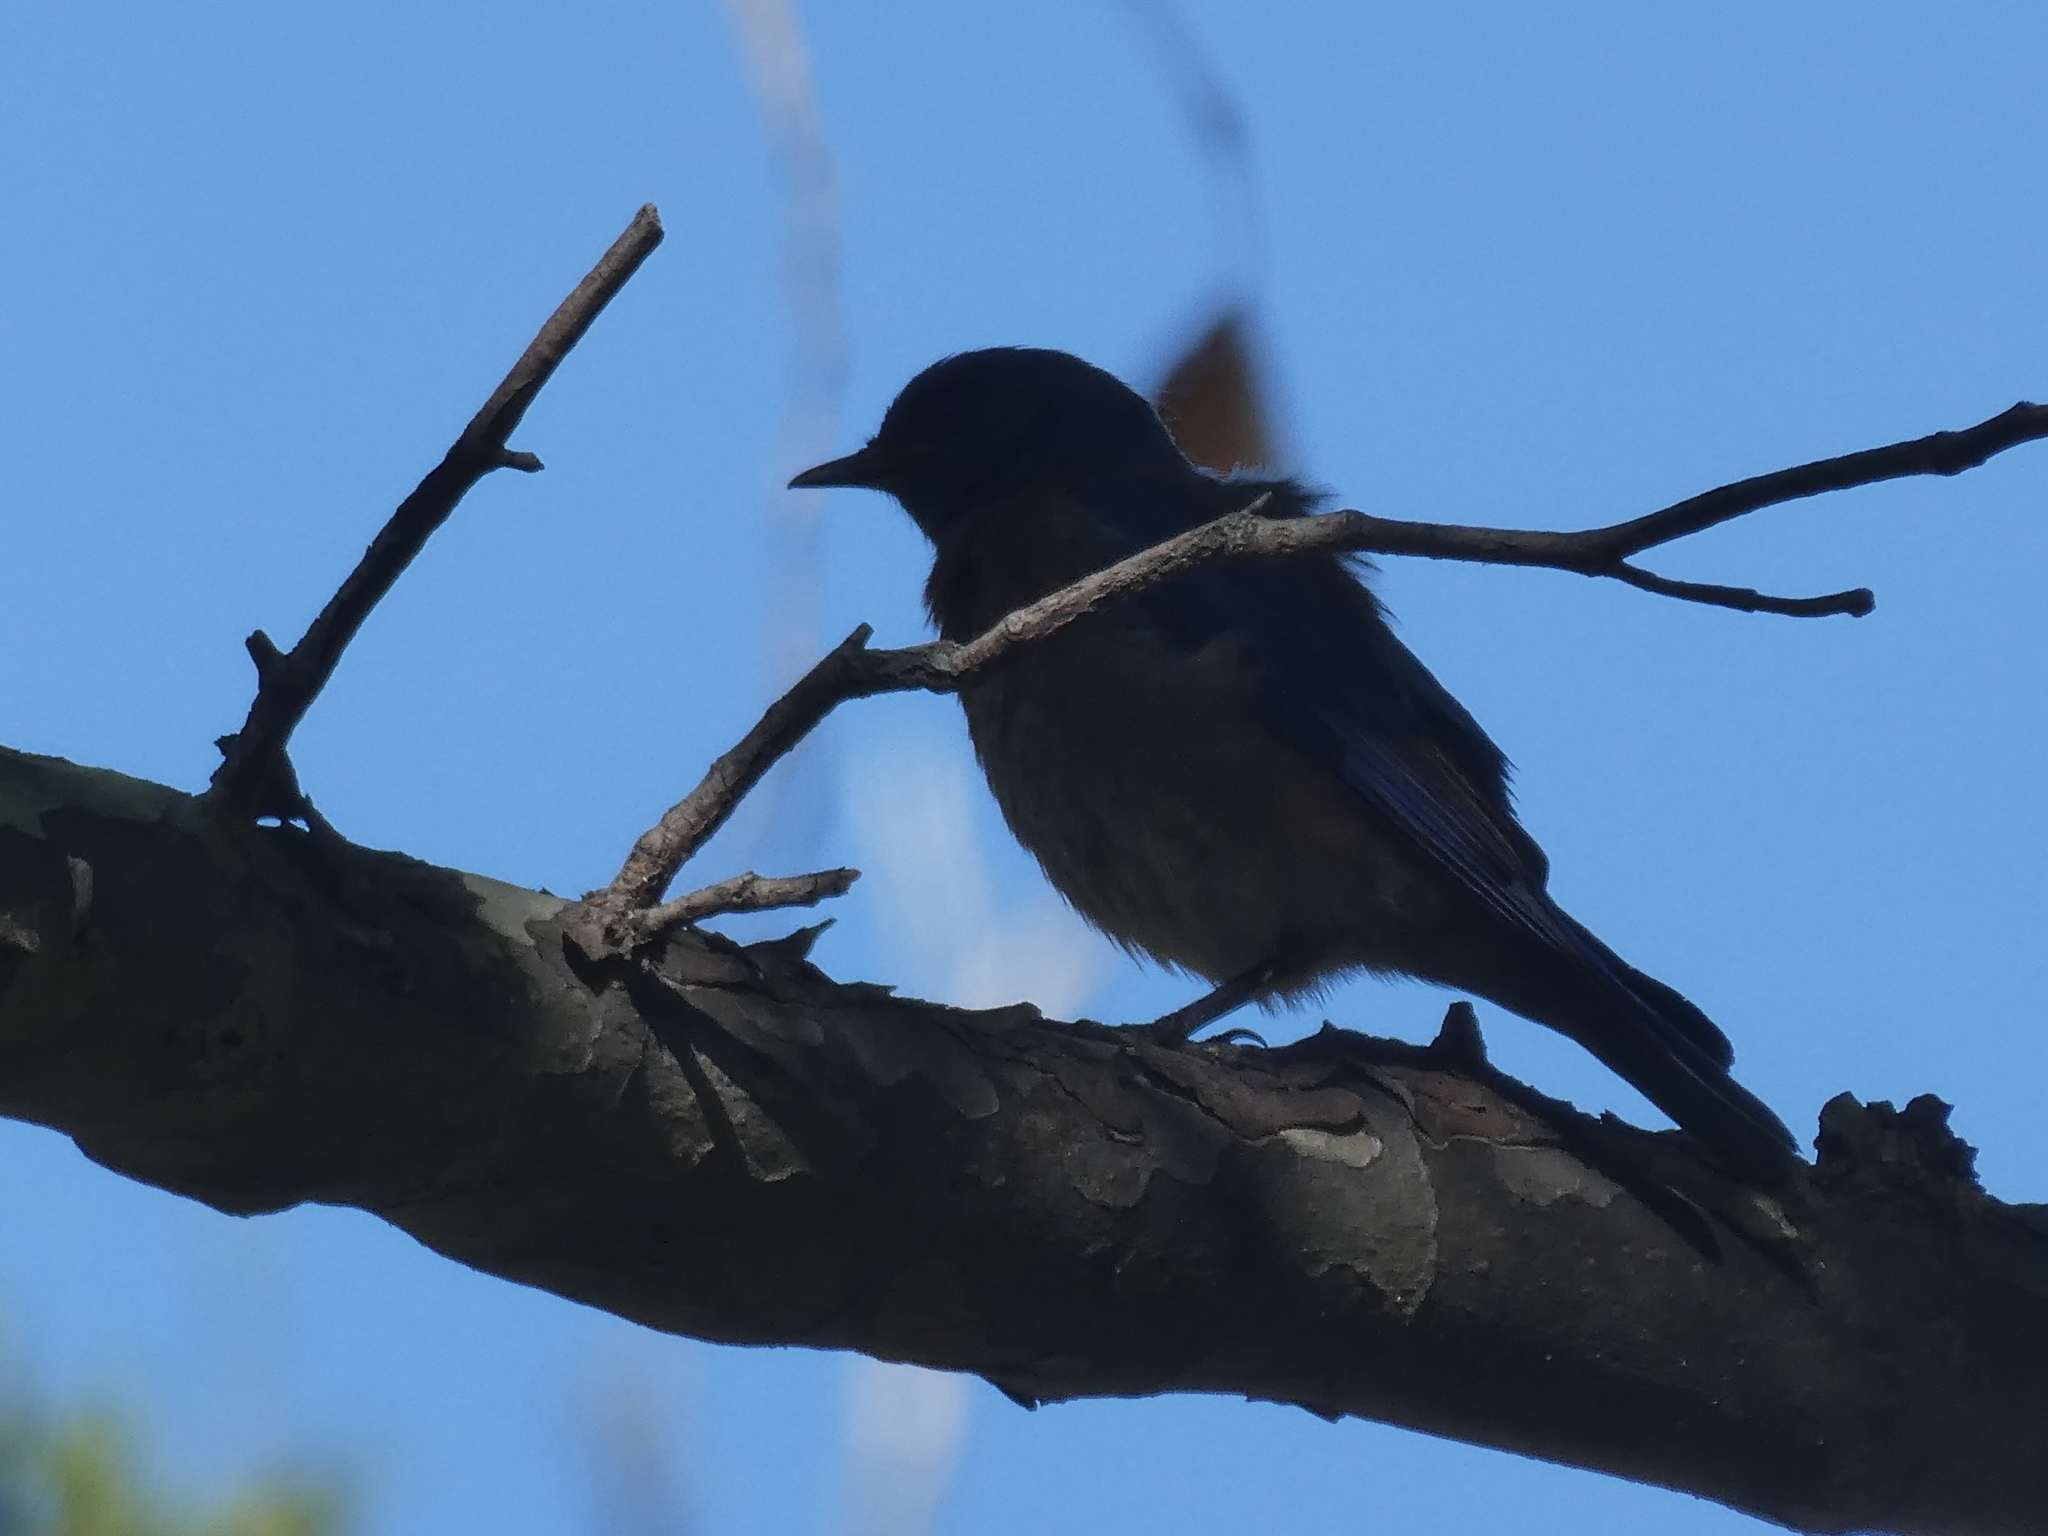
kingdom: Animalia
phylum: Chordata
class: Aves
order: Passeriformes
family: Turdidae
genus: Sialia
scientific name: Sialia mexicana
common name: Western bluebird
